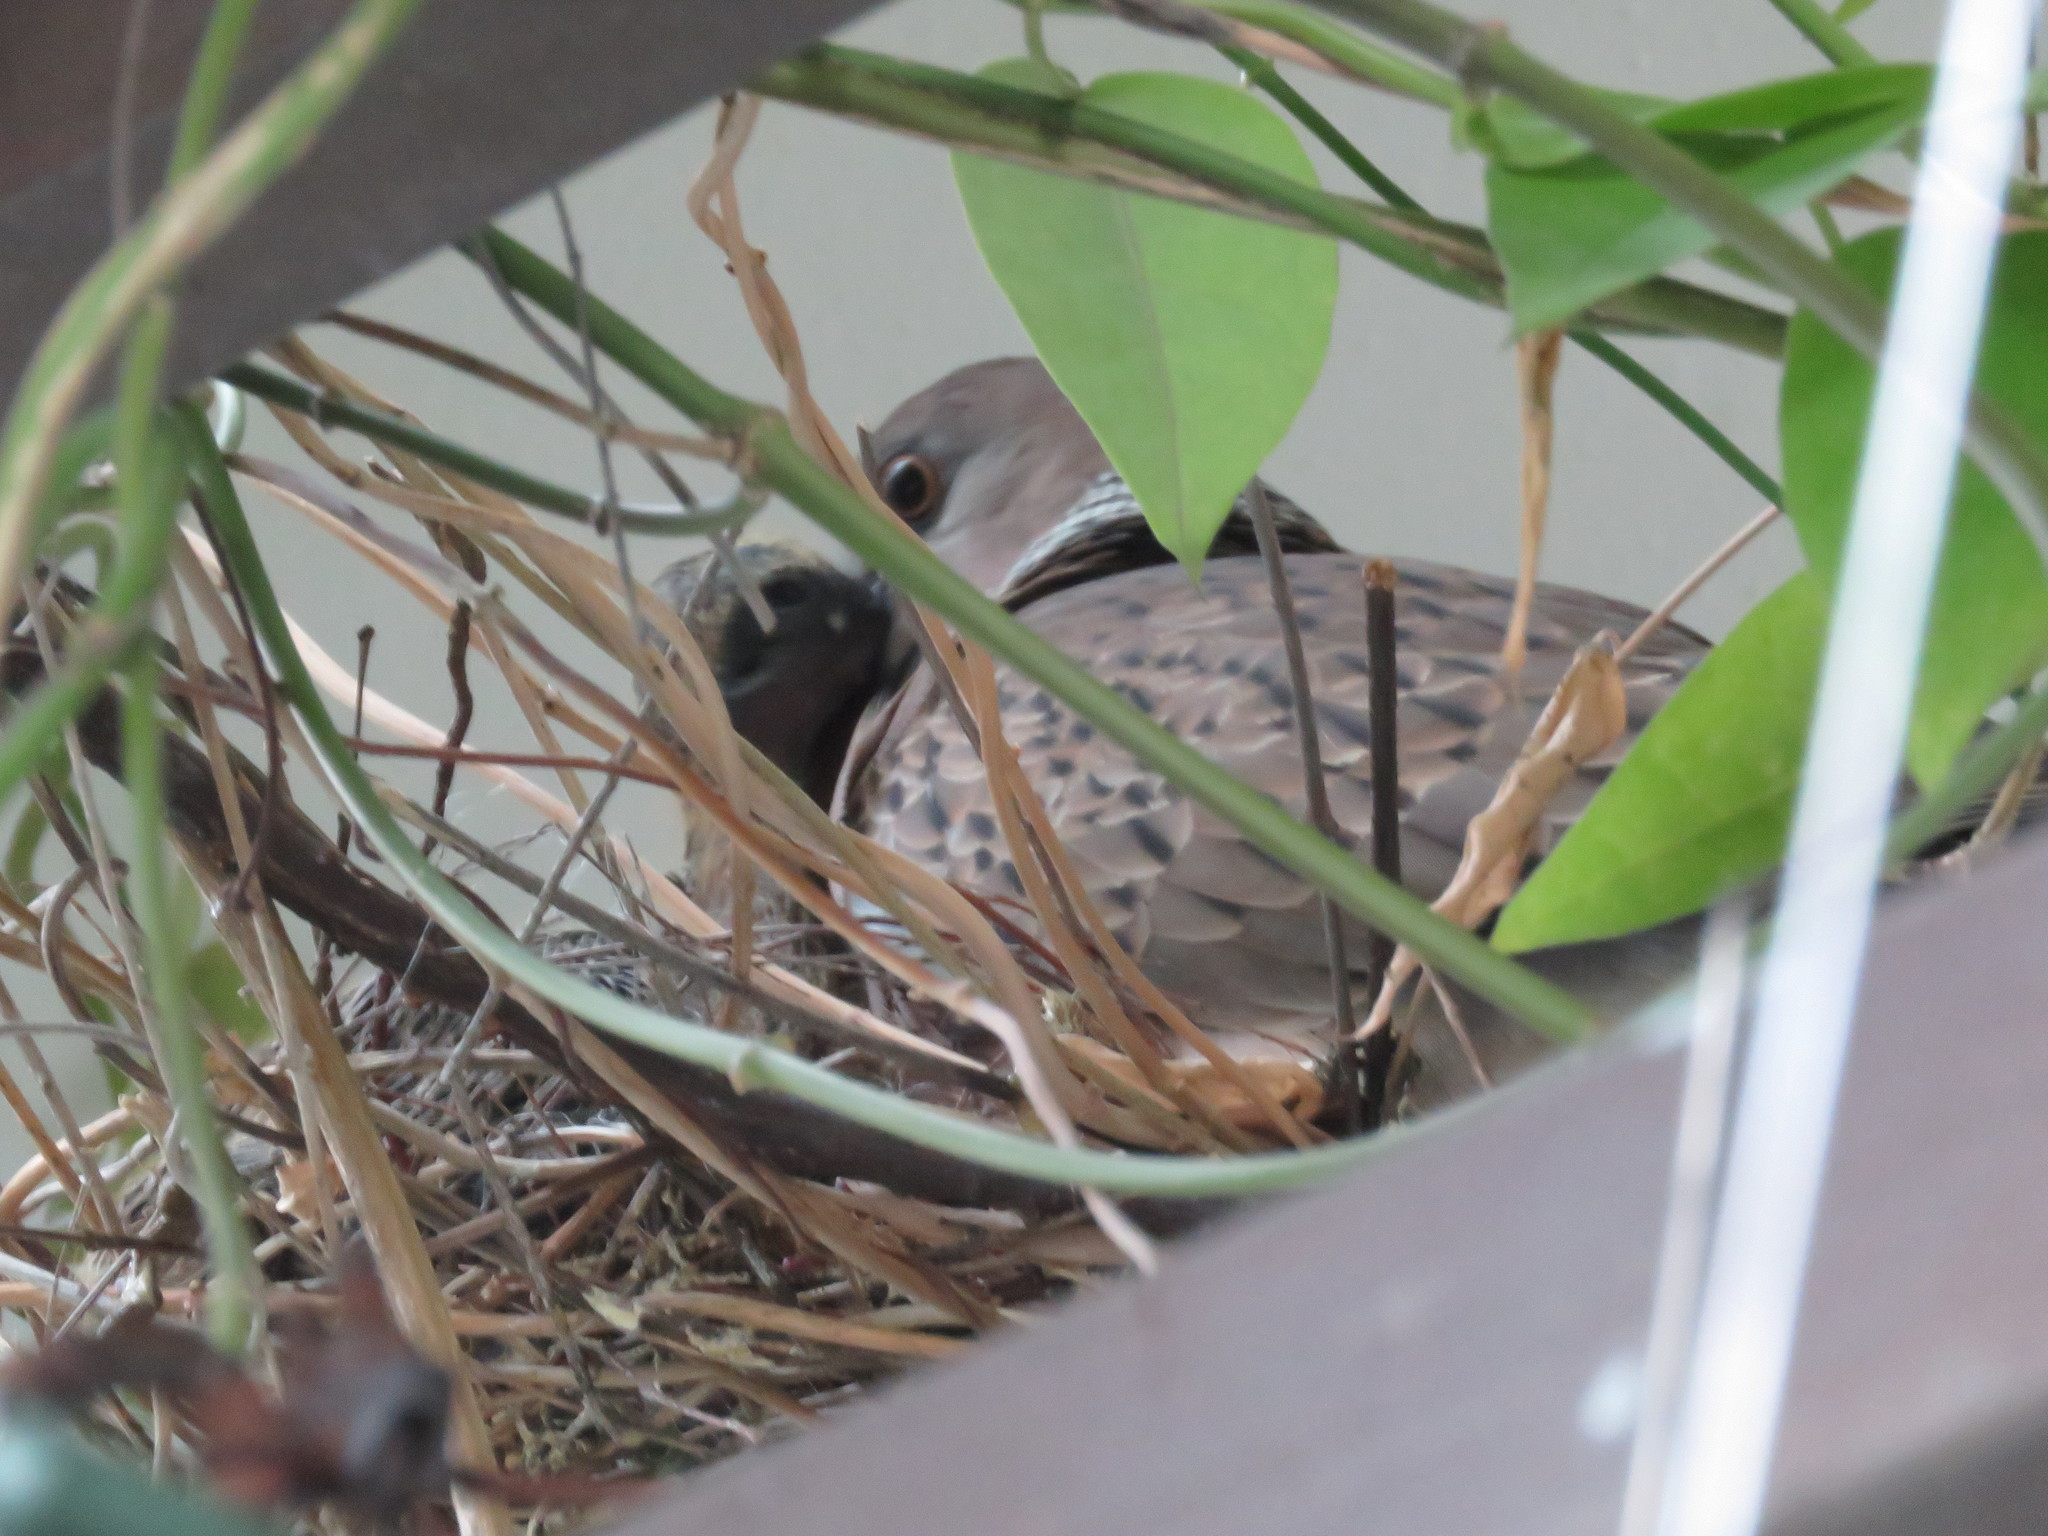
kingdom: Animalia
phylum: Chordata
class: Aves
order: Columbiformes
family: Columbidae
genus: Spilopelia
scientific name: Spilopelia chinensis
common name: Spotted dove
